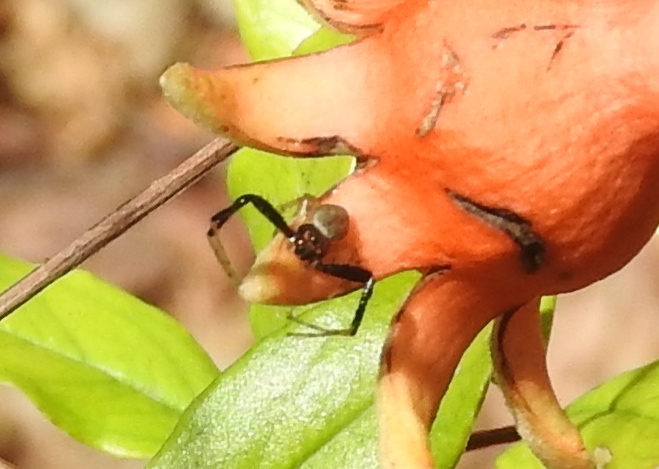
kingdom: Animalia
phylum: Arthropoda
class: Arachnida
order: Araneae
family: Thomisidae
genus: Misumenoides
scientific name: Misumenoides
